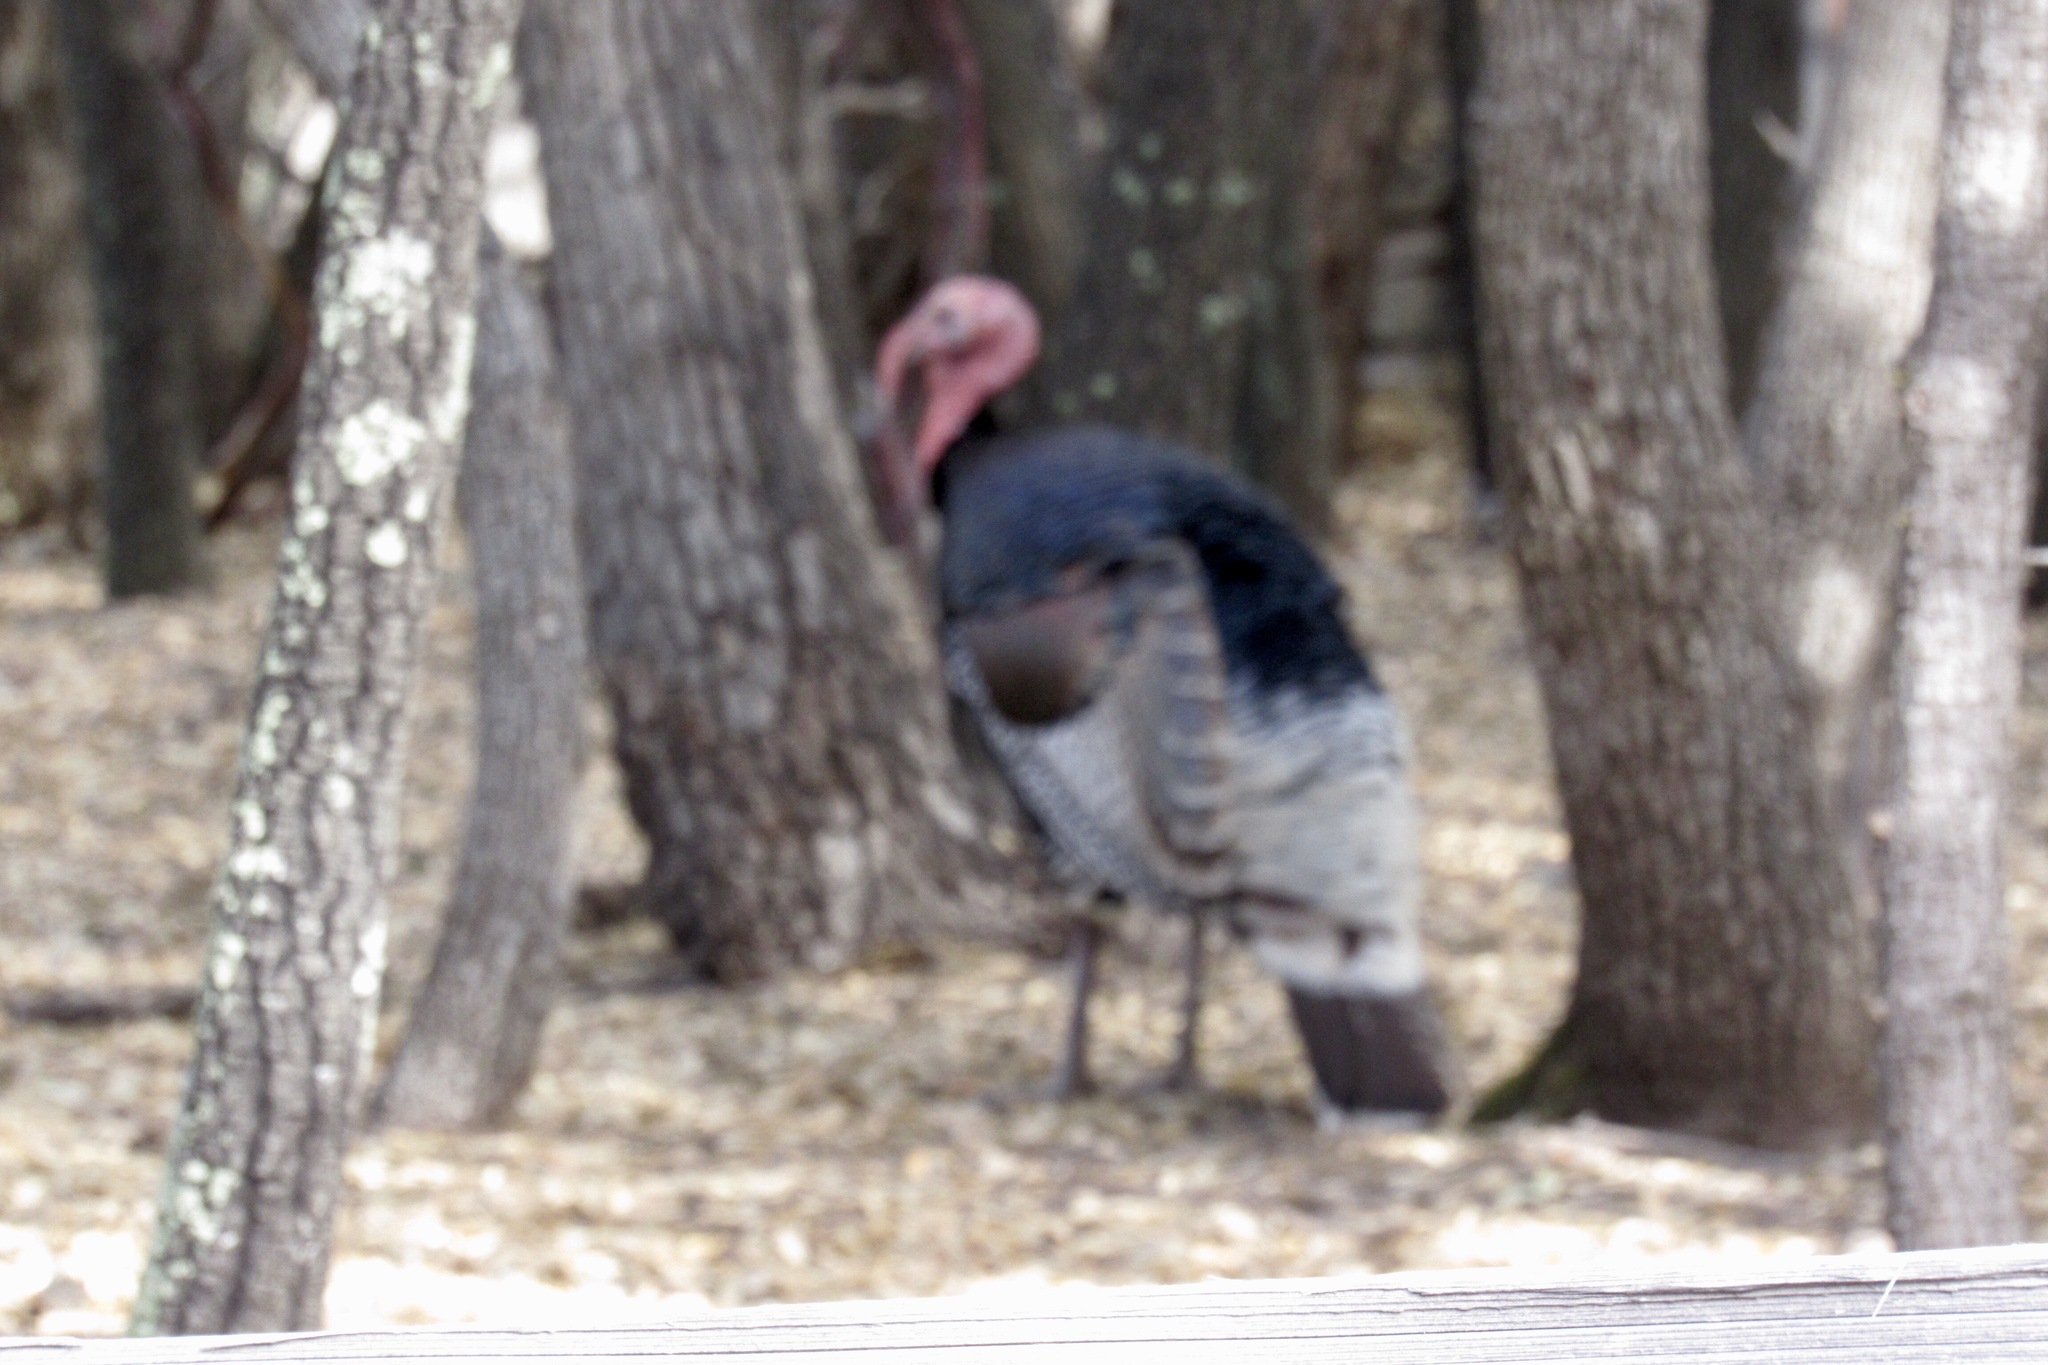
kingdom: Animalia
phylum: Chordata
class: Aves
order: Galliformes
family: Phasianidae
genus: Meleagris
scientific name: Meleagris gallopavo
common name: Wild turkey
